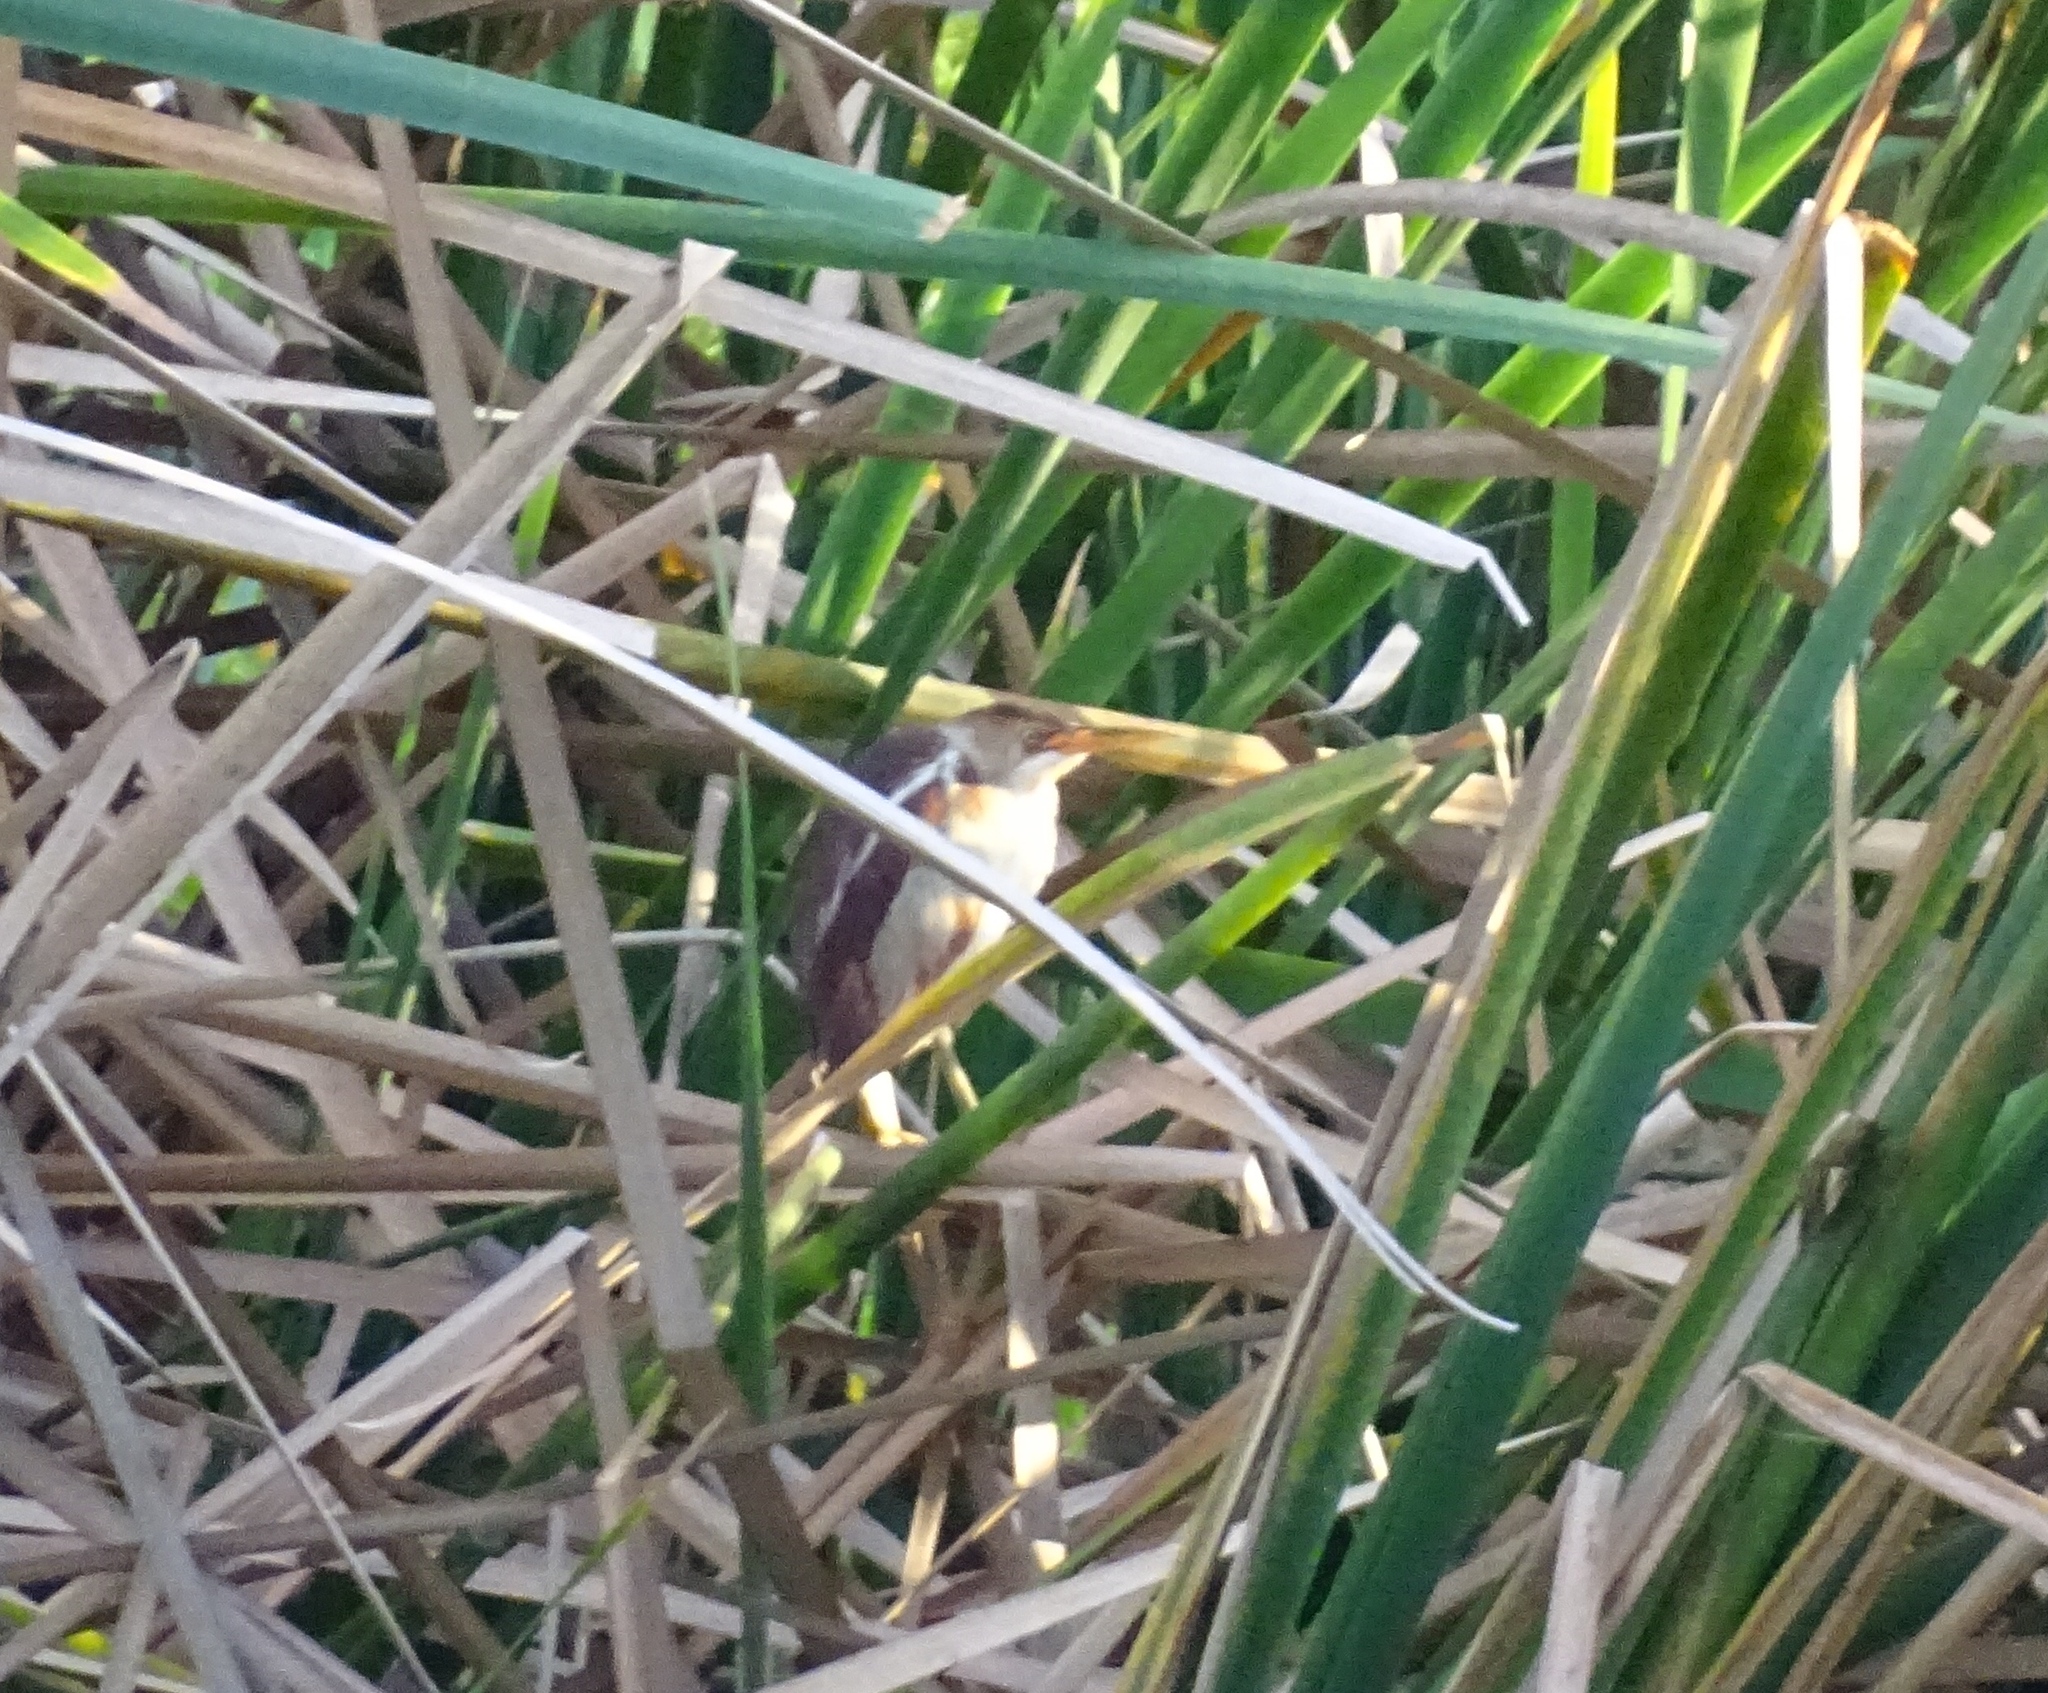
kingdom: Animalia
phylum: Chordata
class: Aves
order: Pelecaniformes
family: Ardeidae
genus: Ixobrychus
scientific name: Ixobrychus exilis
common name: Least bittern
